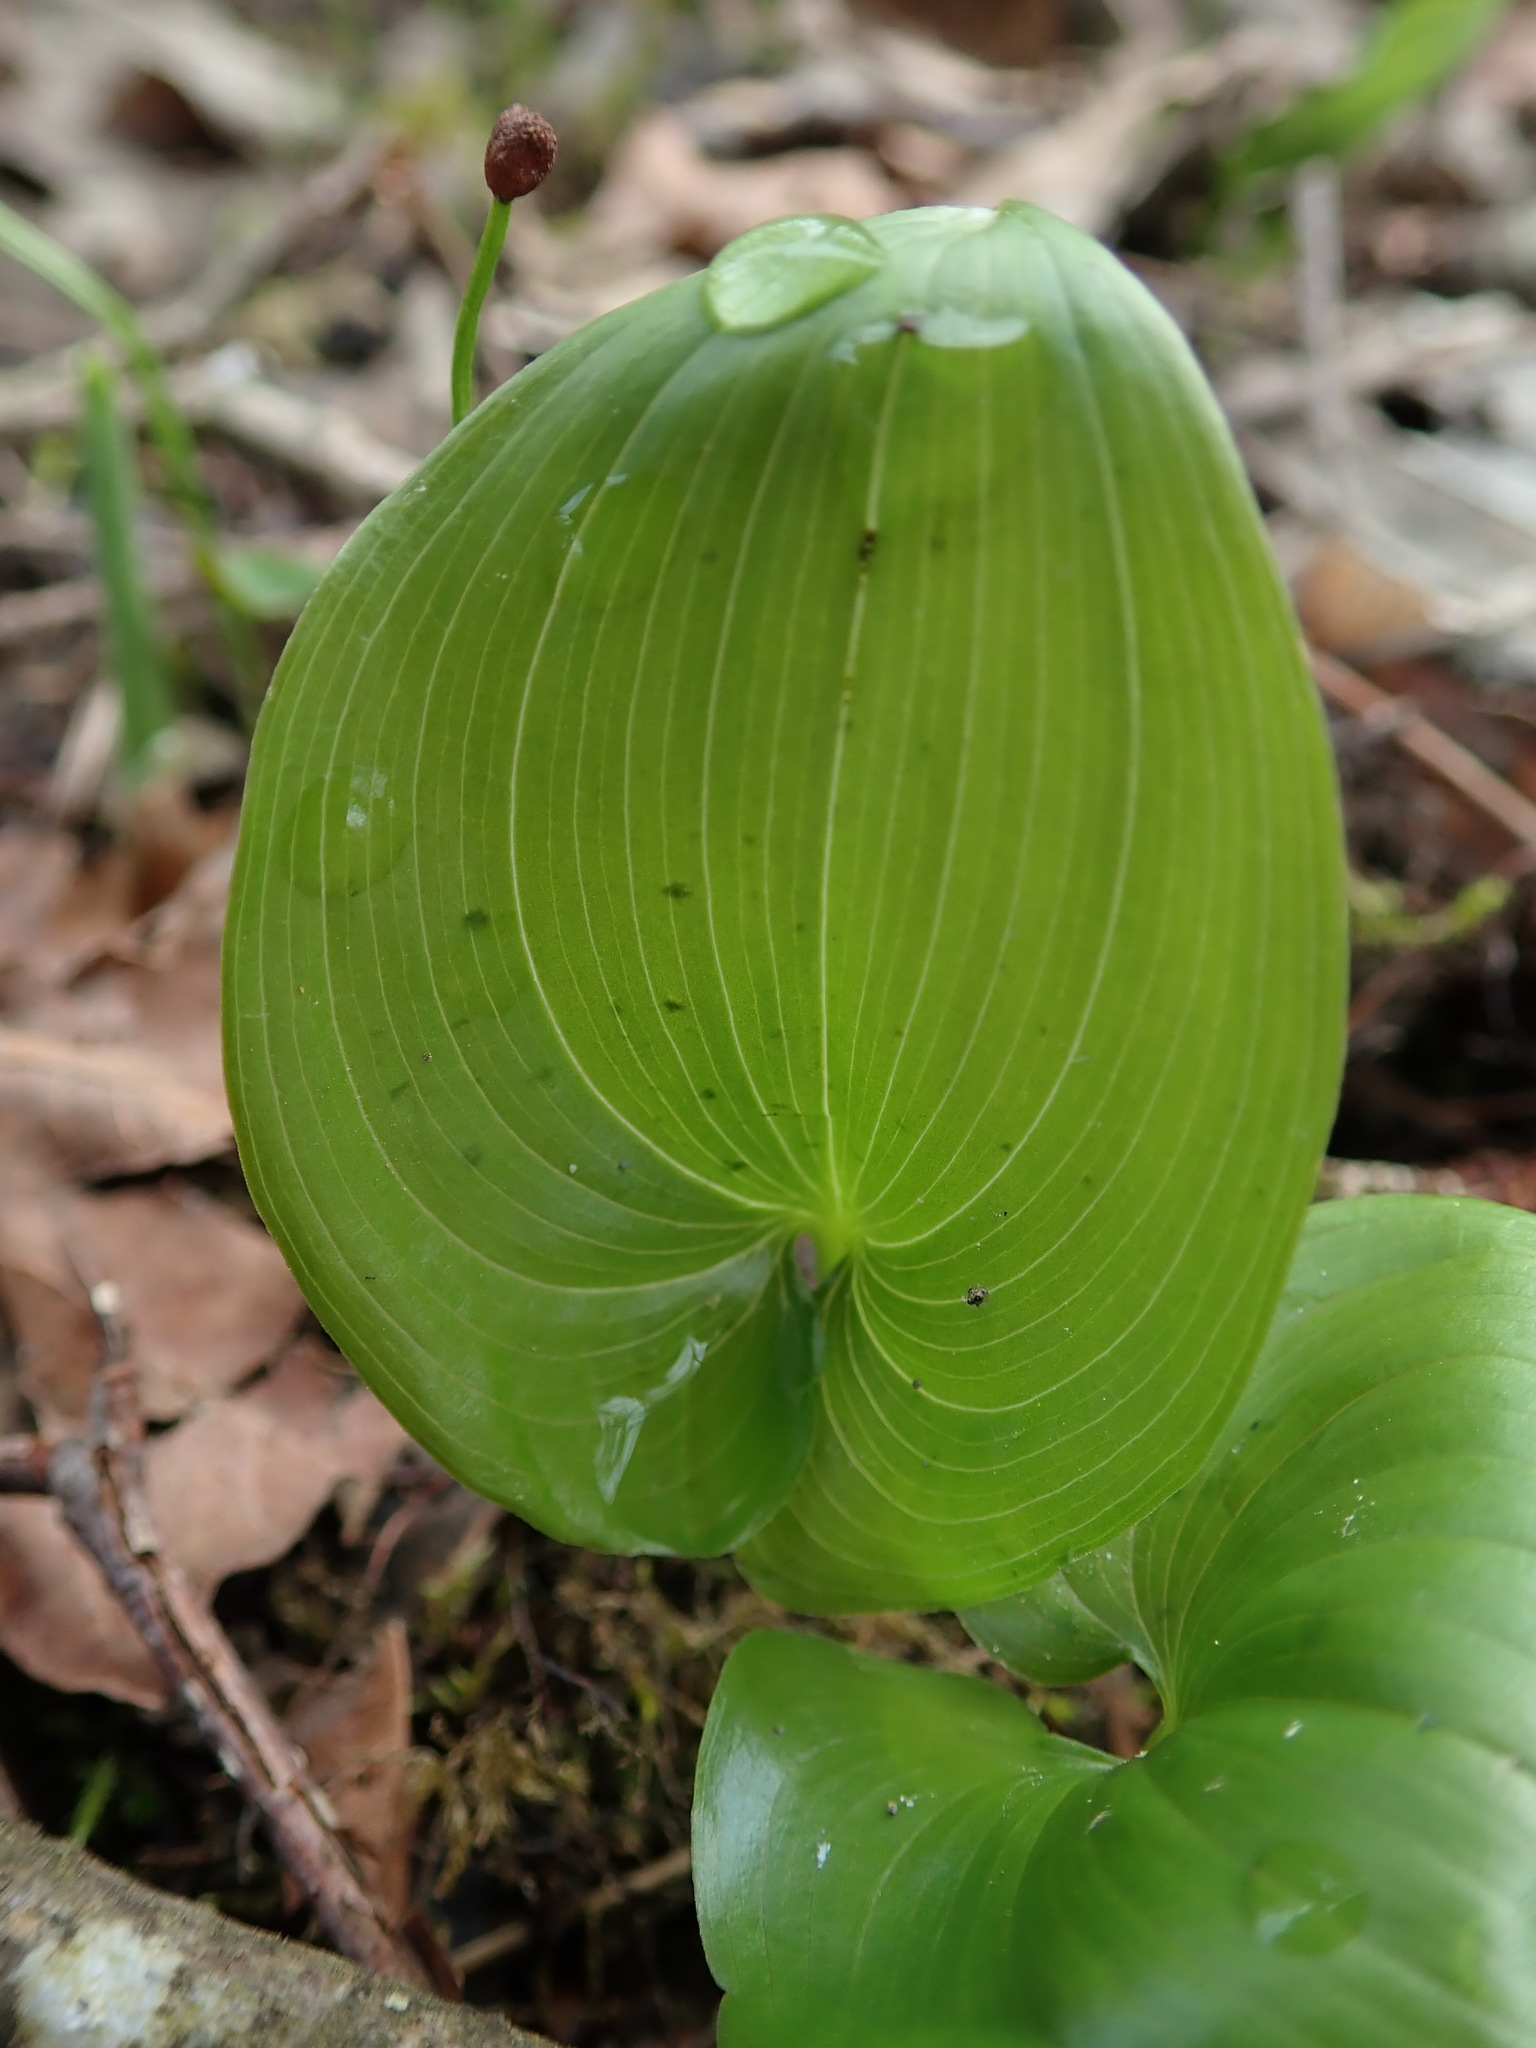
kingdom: Plantae
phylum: Tracheophyta
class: Liliopsida
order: Asparagales
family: Asparagaceae
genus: Maianthemum
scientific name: Maianthemum dilatatum
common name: False lily-of-the-valley
